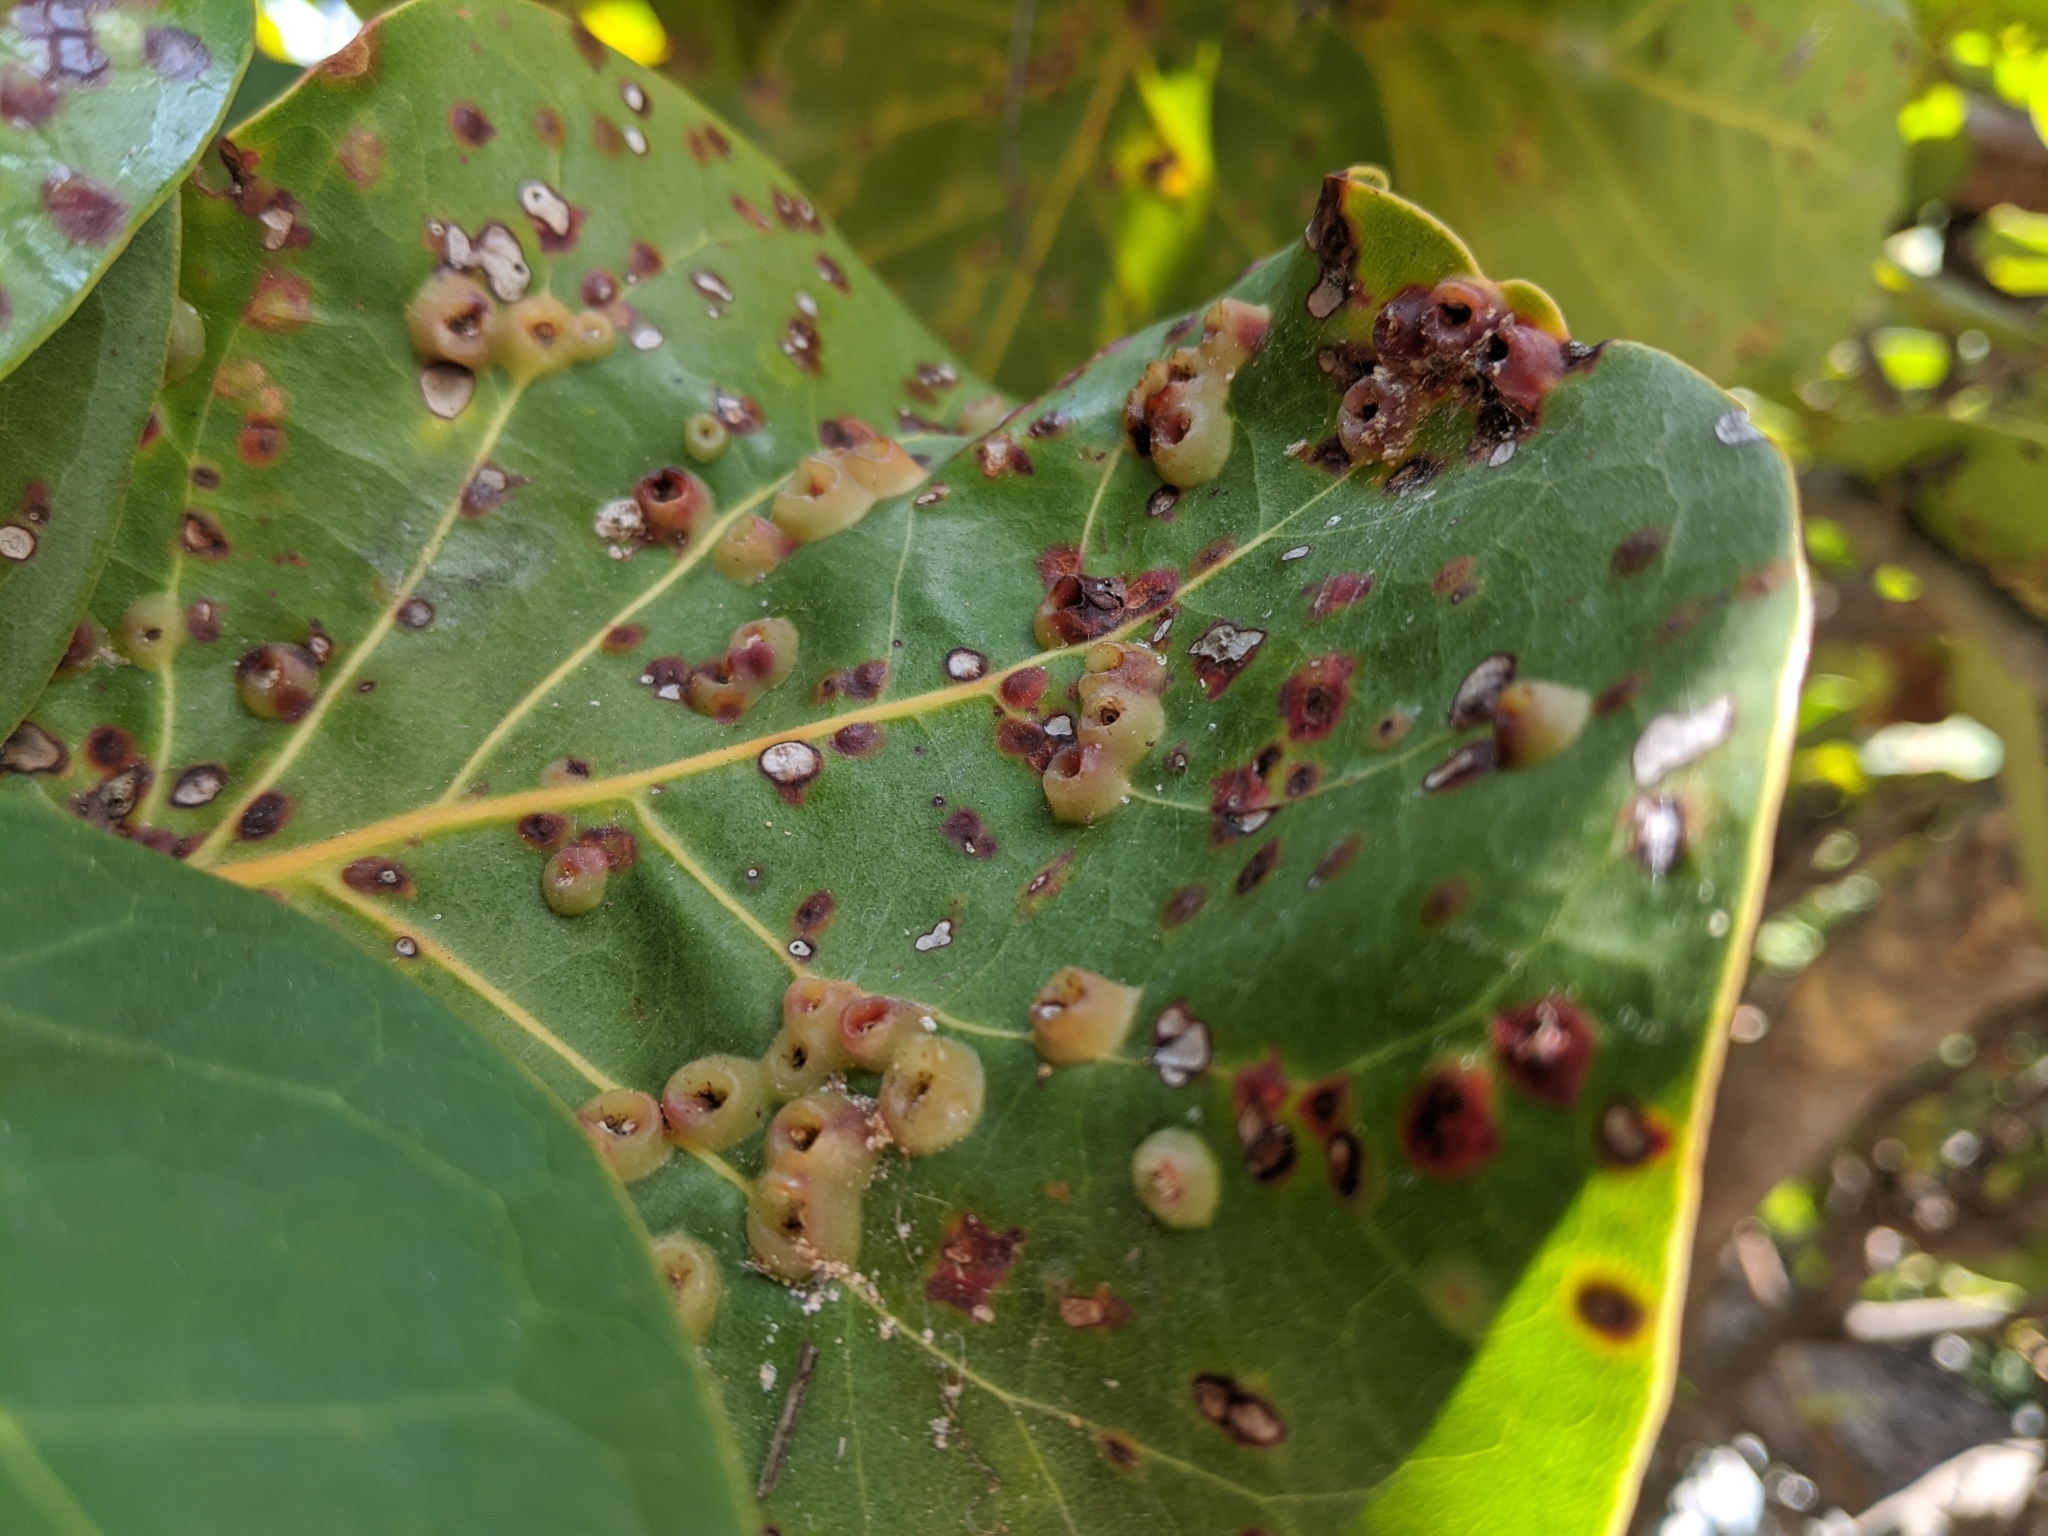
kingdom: Animalia
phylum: Arthropoda
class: Insecta
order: Diptera
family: Cecidomyiidae
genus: Ctenodactylomyia
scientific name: Ctenodactylomyia watsoni
